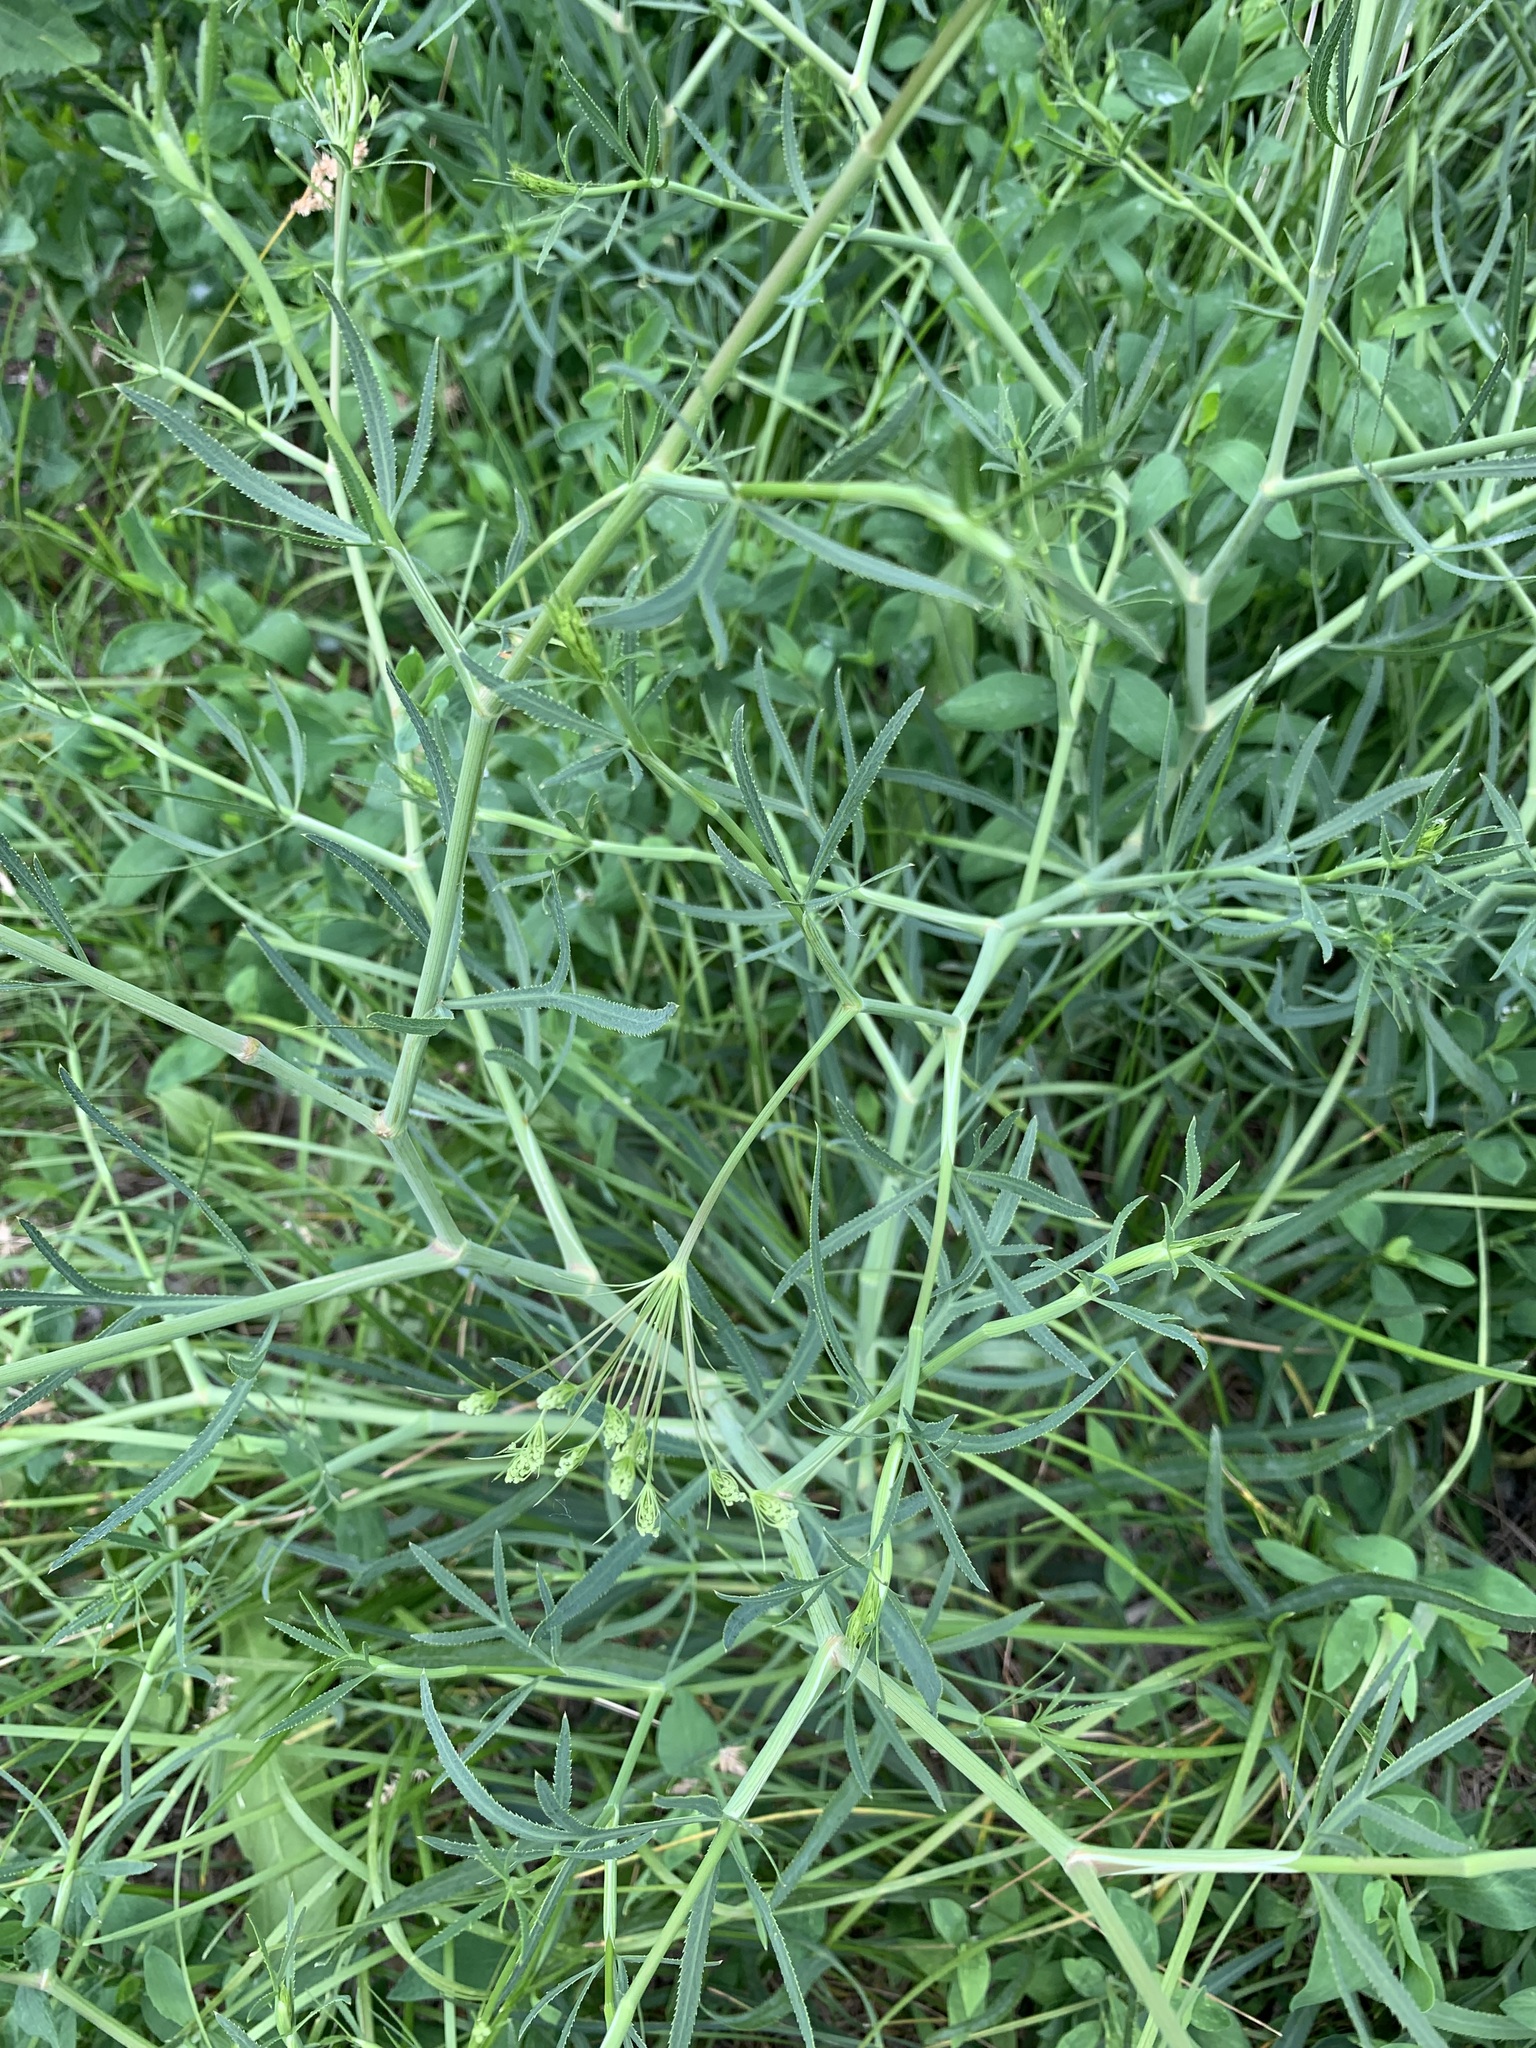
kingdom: Plantae
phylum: Tracheophyta
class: Magnoliopsida
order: Apiales
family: Apiaceae
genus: Falcaria
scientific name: Falcaria vulgaris
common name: Longleaf
